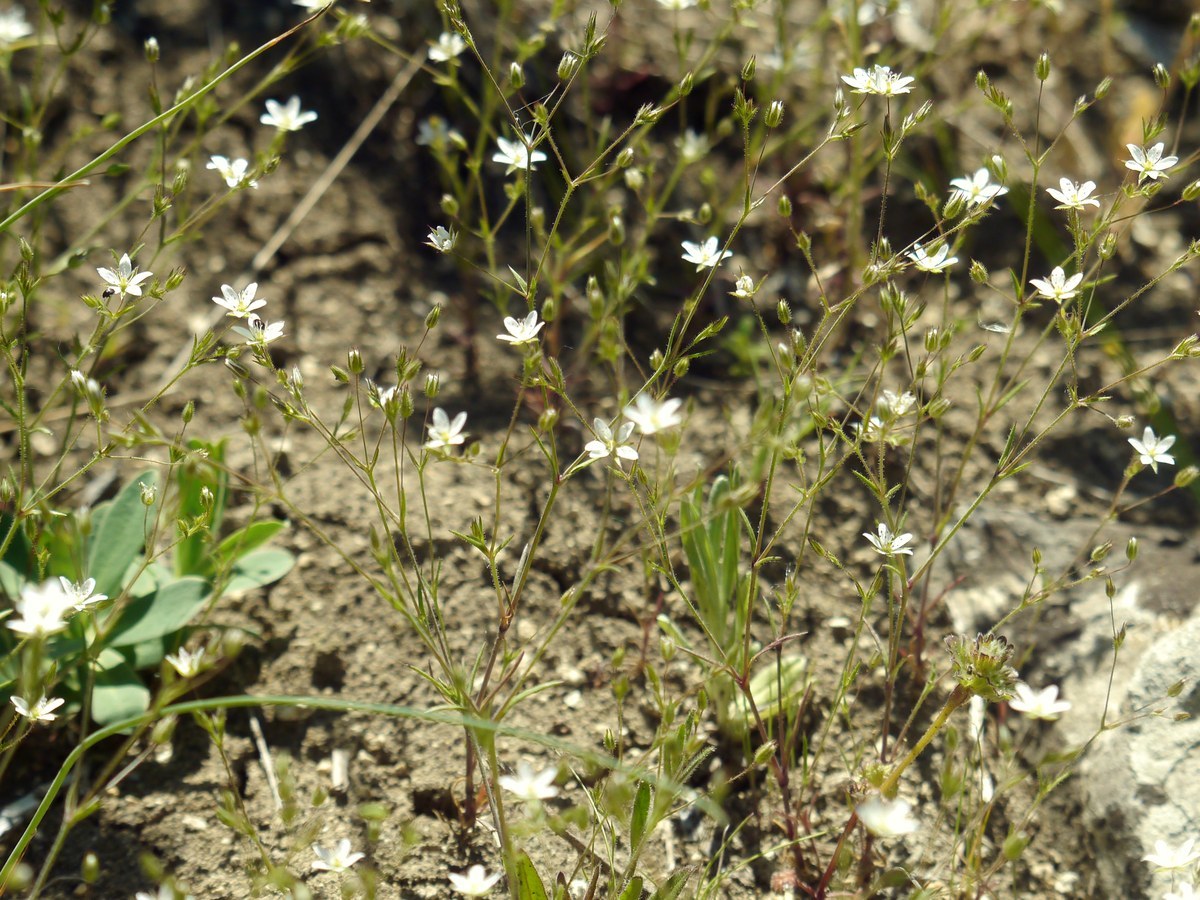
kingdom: Plantae
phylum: Tracheophyta
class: Magnoliopsida
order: Caryophyllales
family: Caryophyllaceae
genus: Sabulina
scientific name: Sabulina tenuifolia
